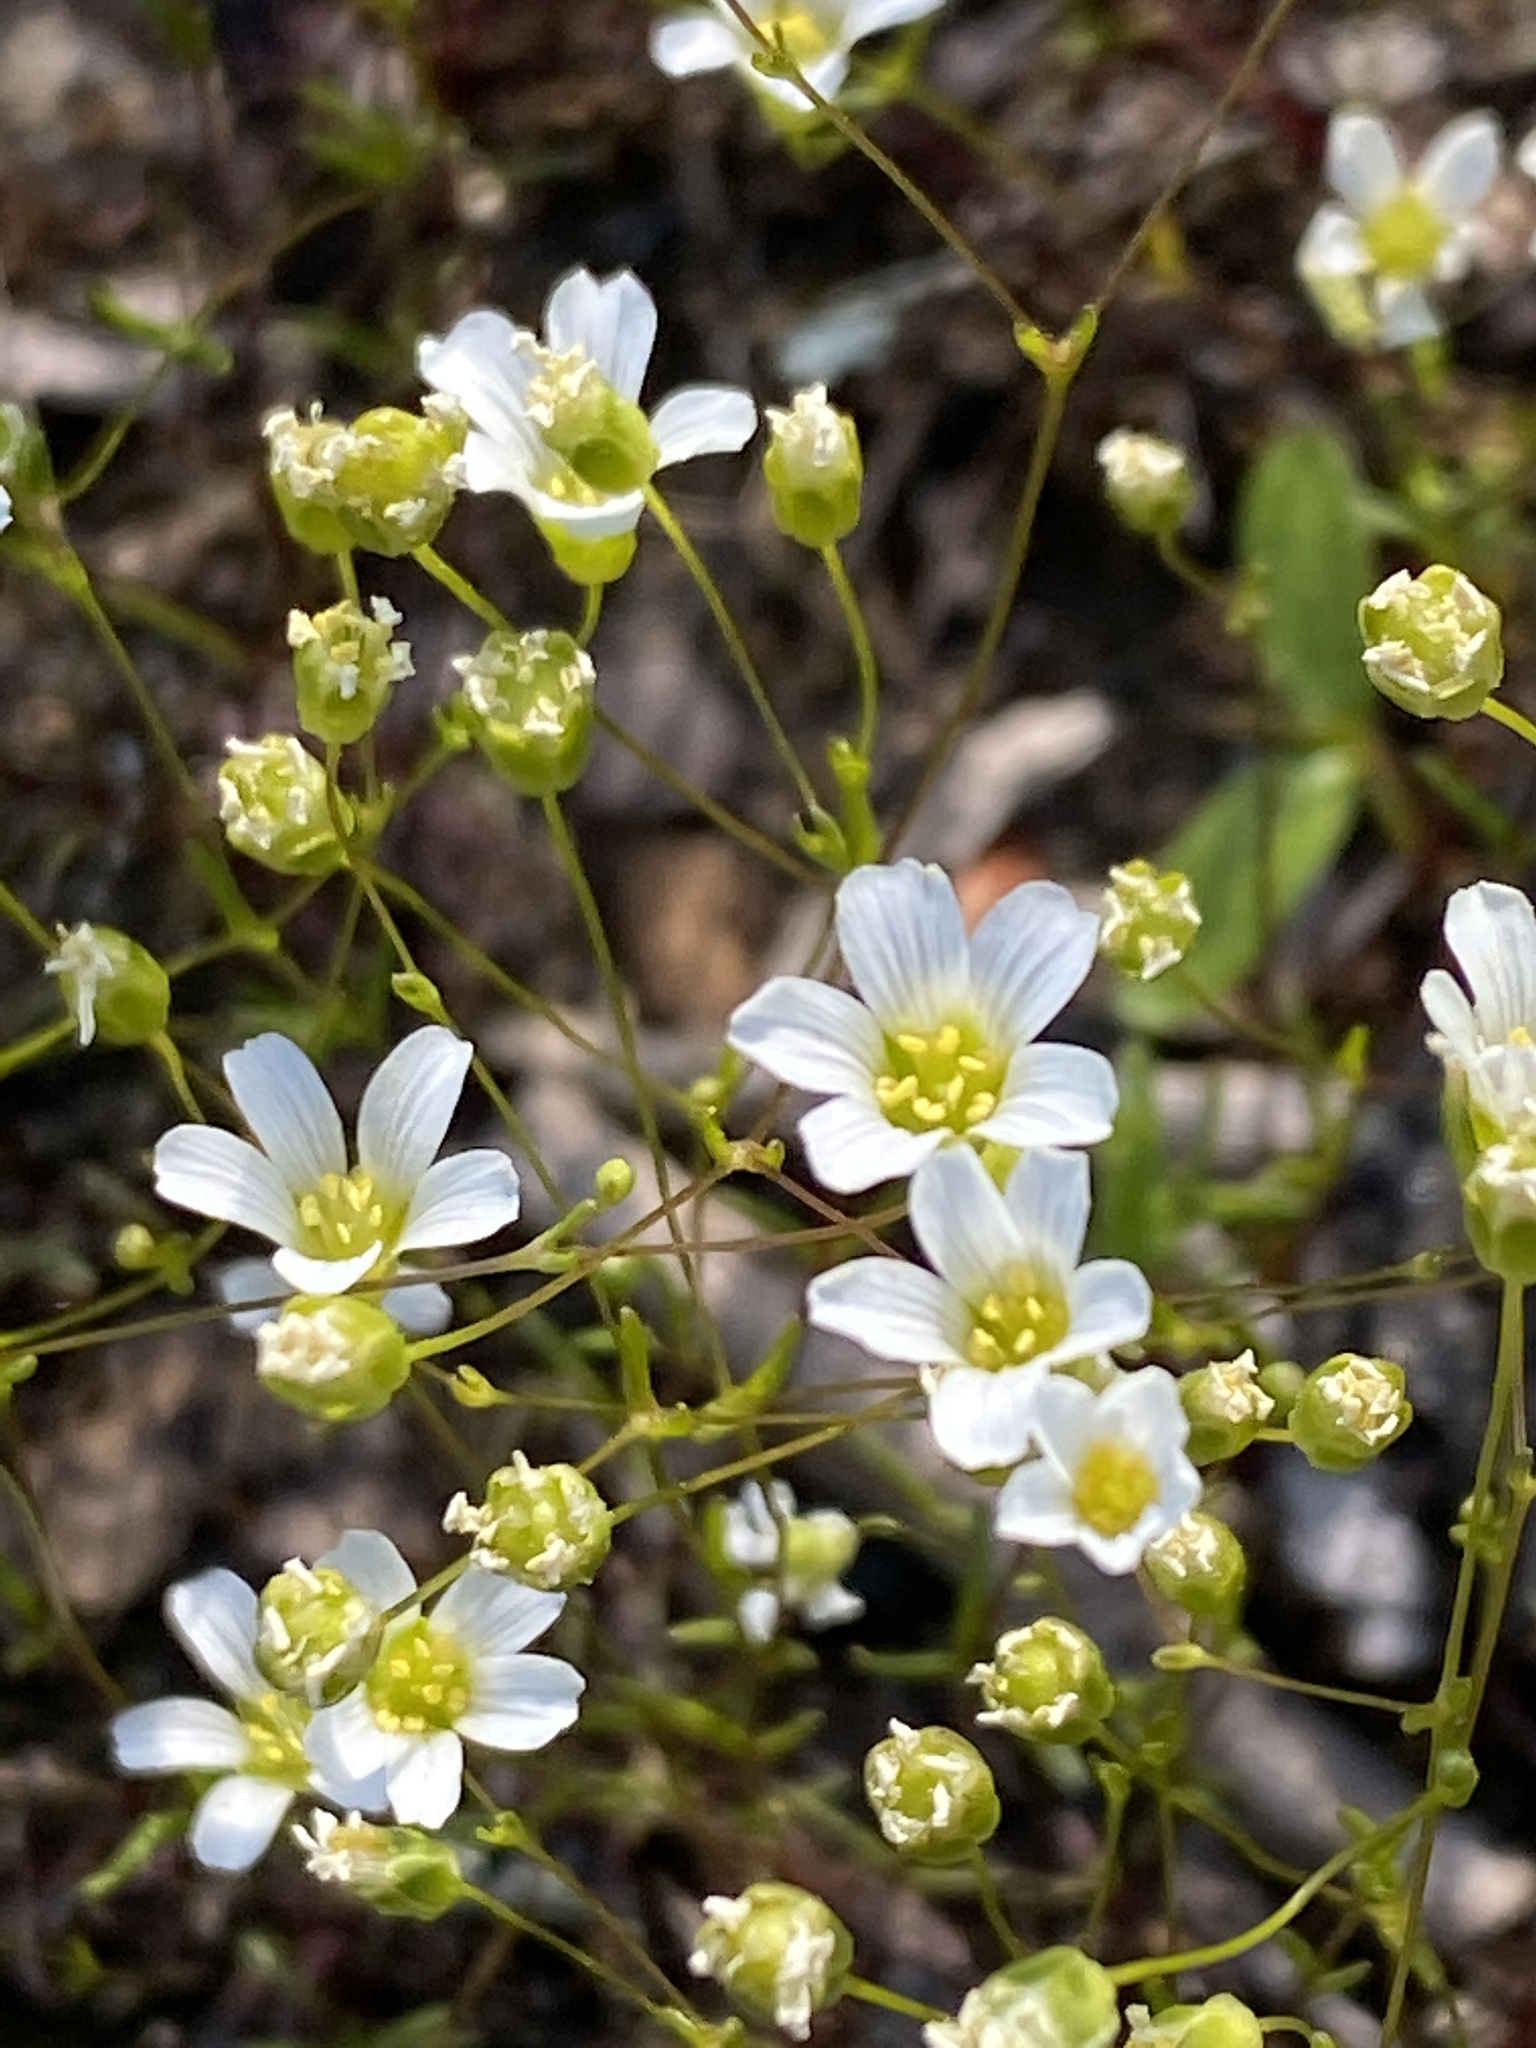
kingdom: Plantae
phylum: Tracheophyta
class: Magnoliopsida
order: Caryophyllales
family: Caryophyllaceae
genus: Geocarpon
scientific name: Geocarpon glabrum
